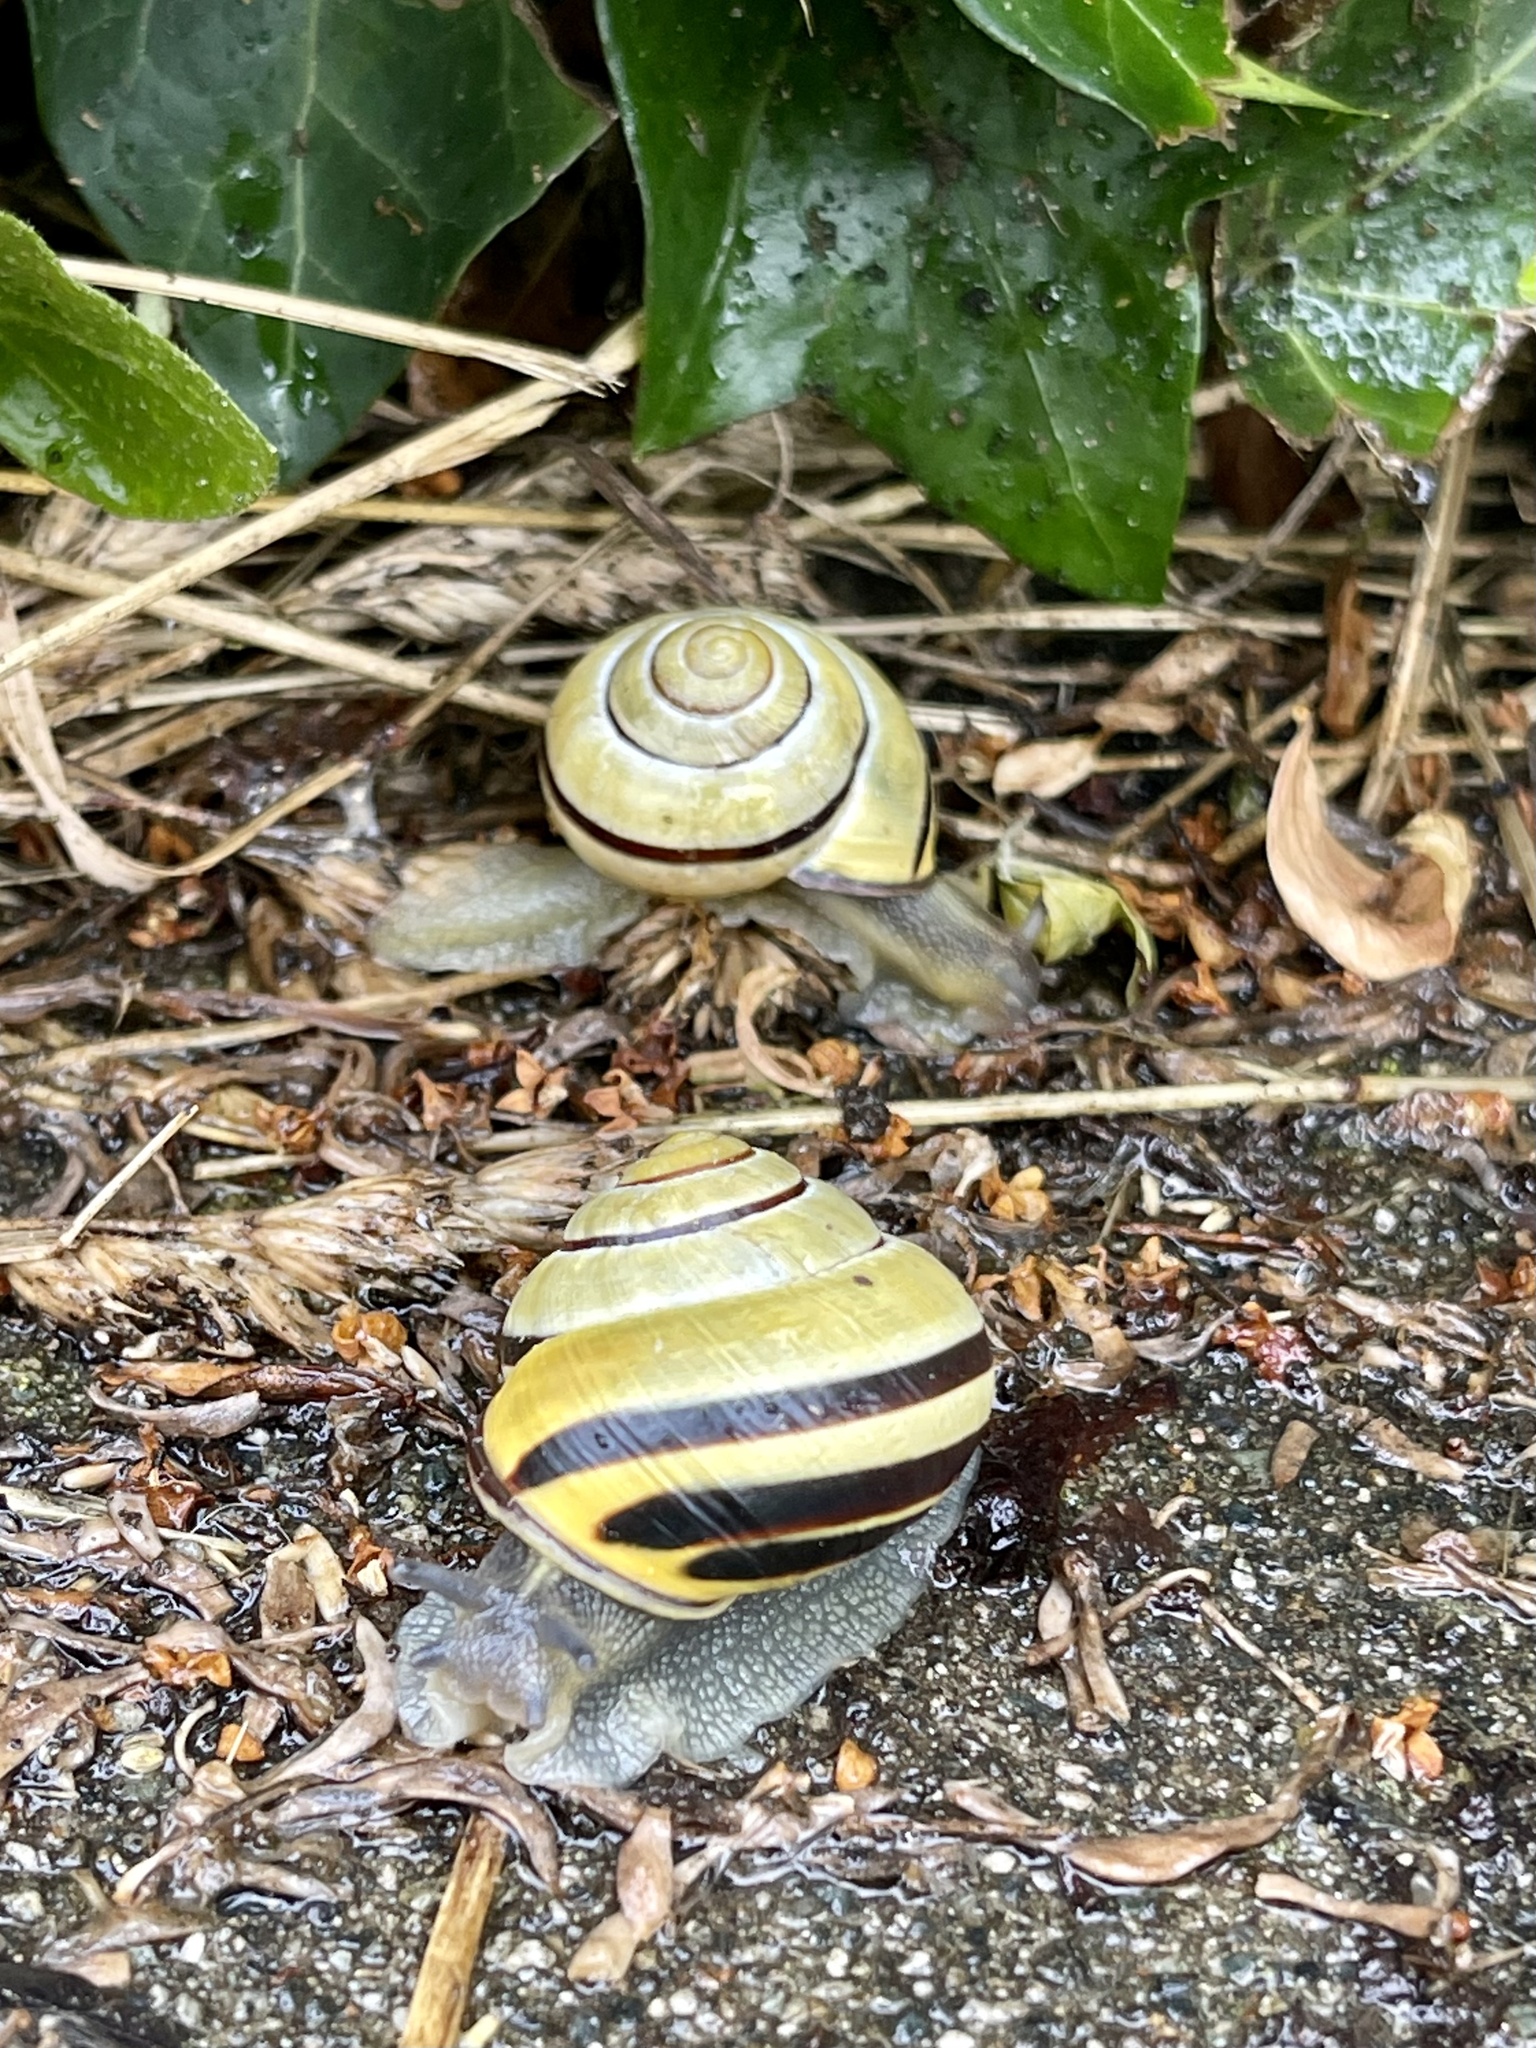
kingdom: Animalia
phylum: Mollusca
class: Gastropoda
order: Stylommatophora
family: Helicidae
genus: Cepaea
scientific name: Cepaea nemoralis
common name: Grovesnail
